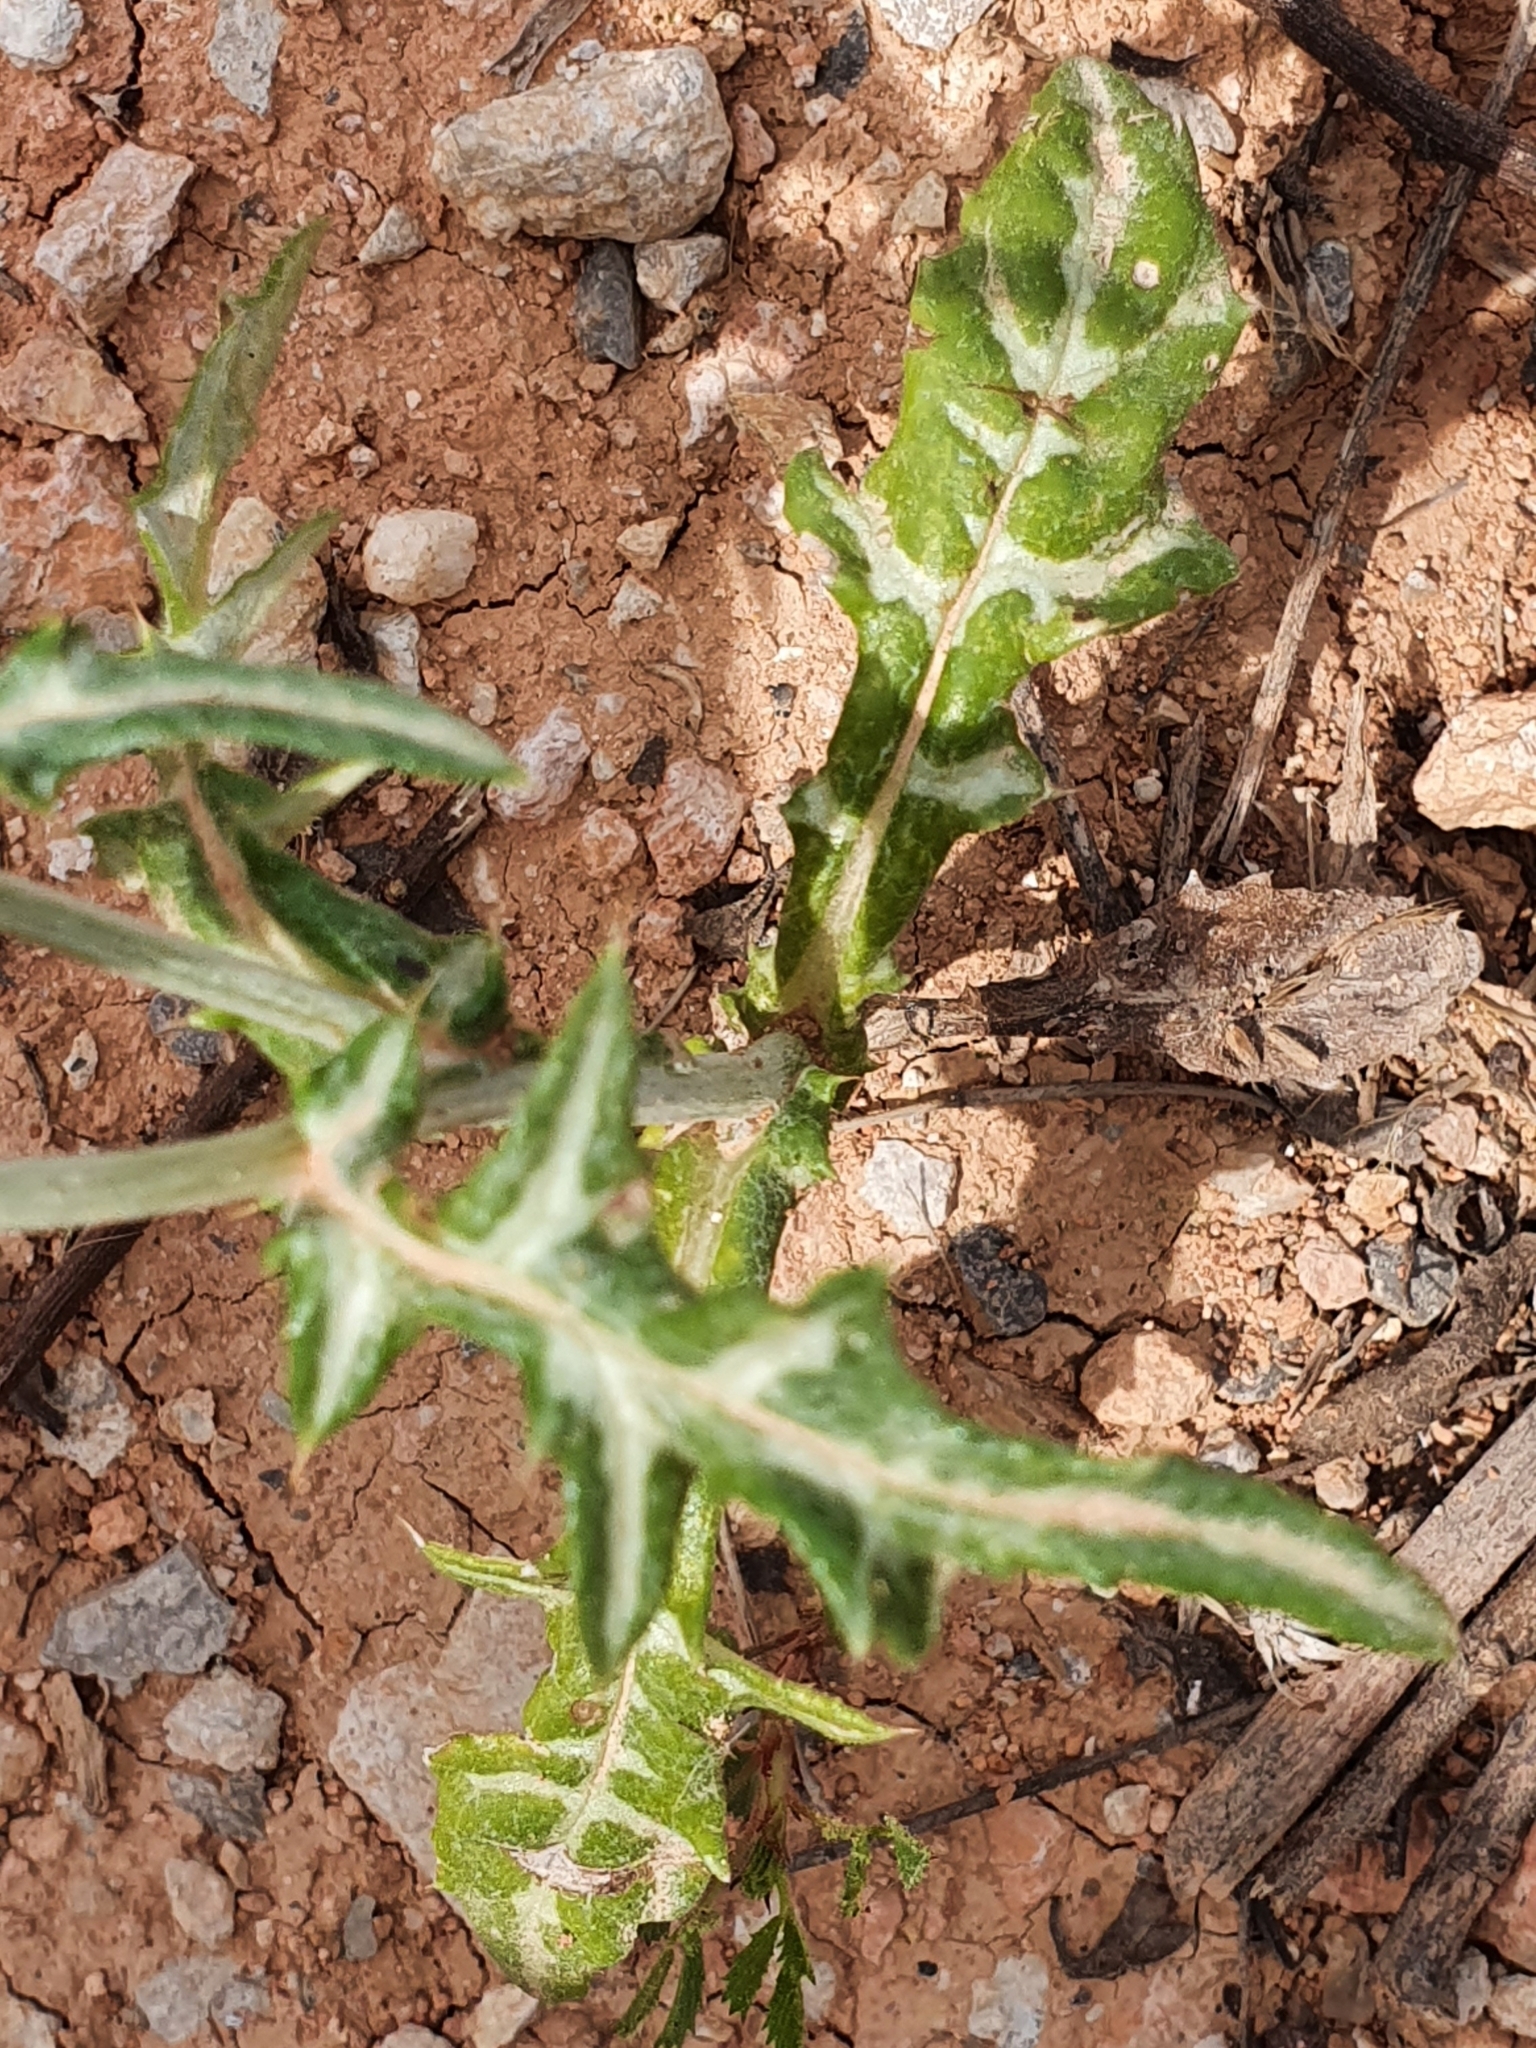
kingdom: Plantae
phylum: Tracheophyta
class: Magnoliopsida
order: Asterales
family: Asteraceae
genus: Galactites
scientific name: Galactites tomentosa
